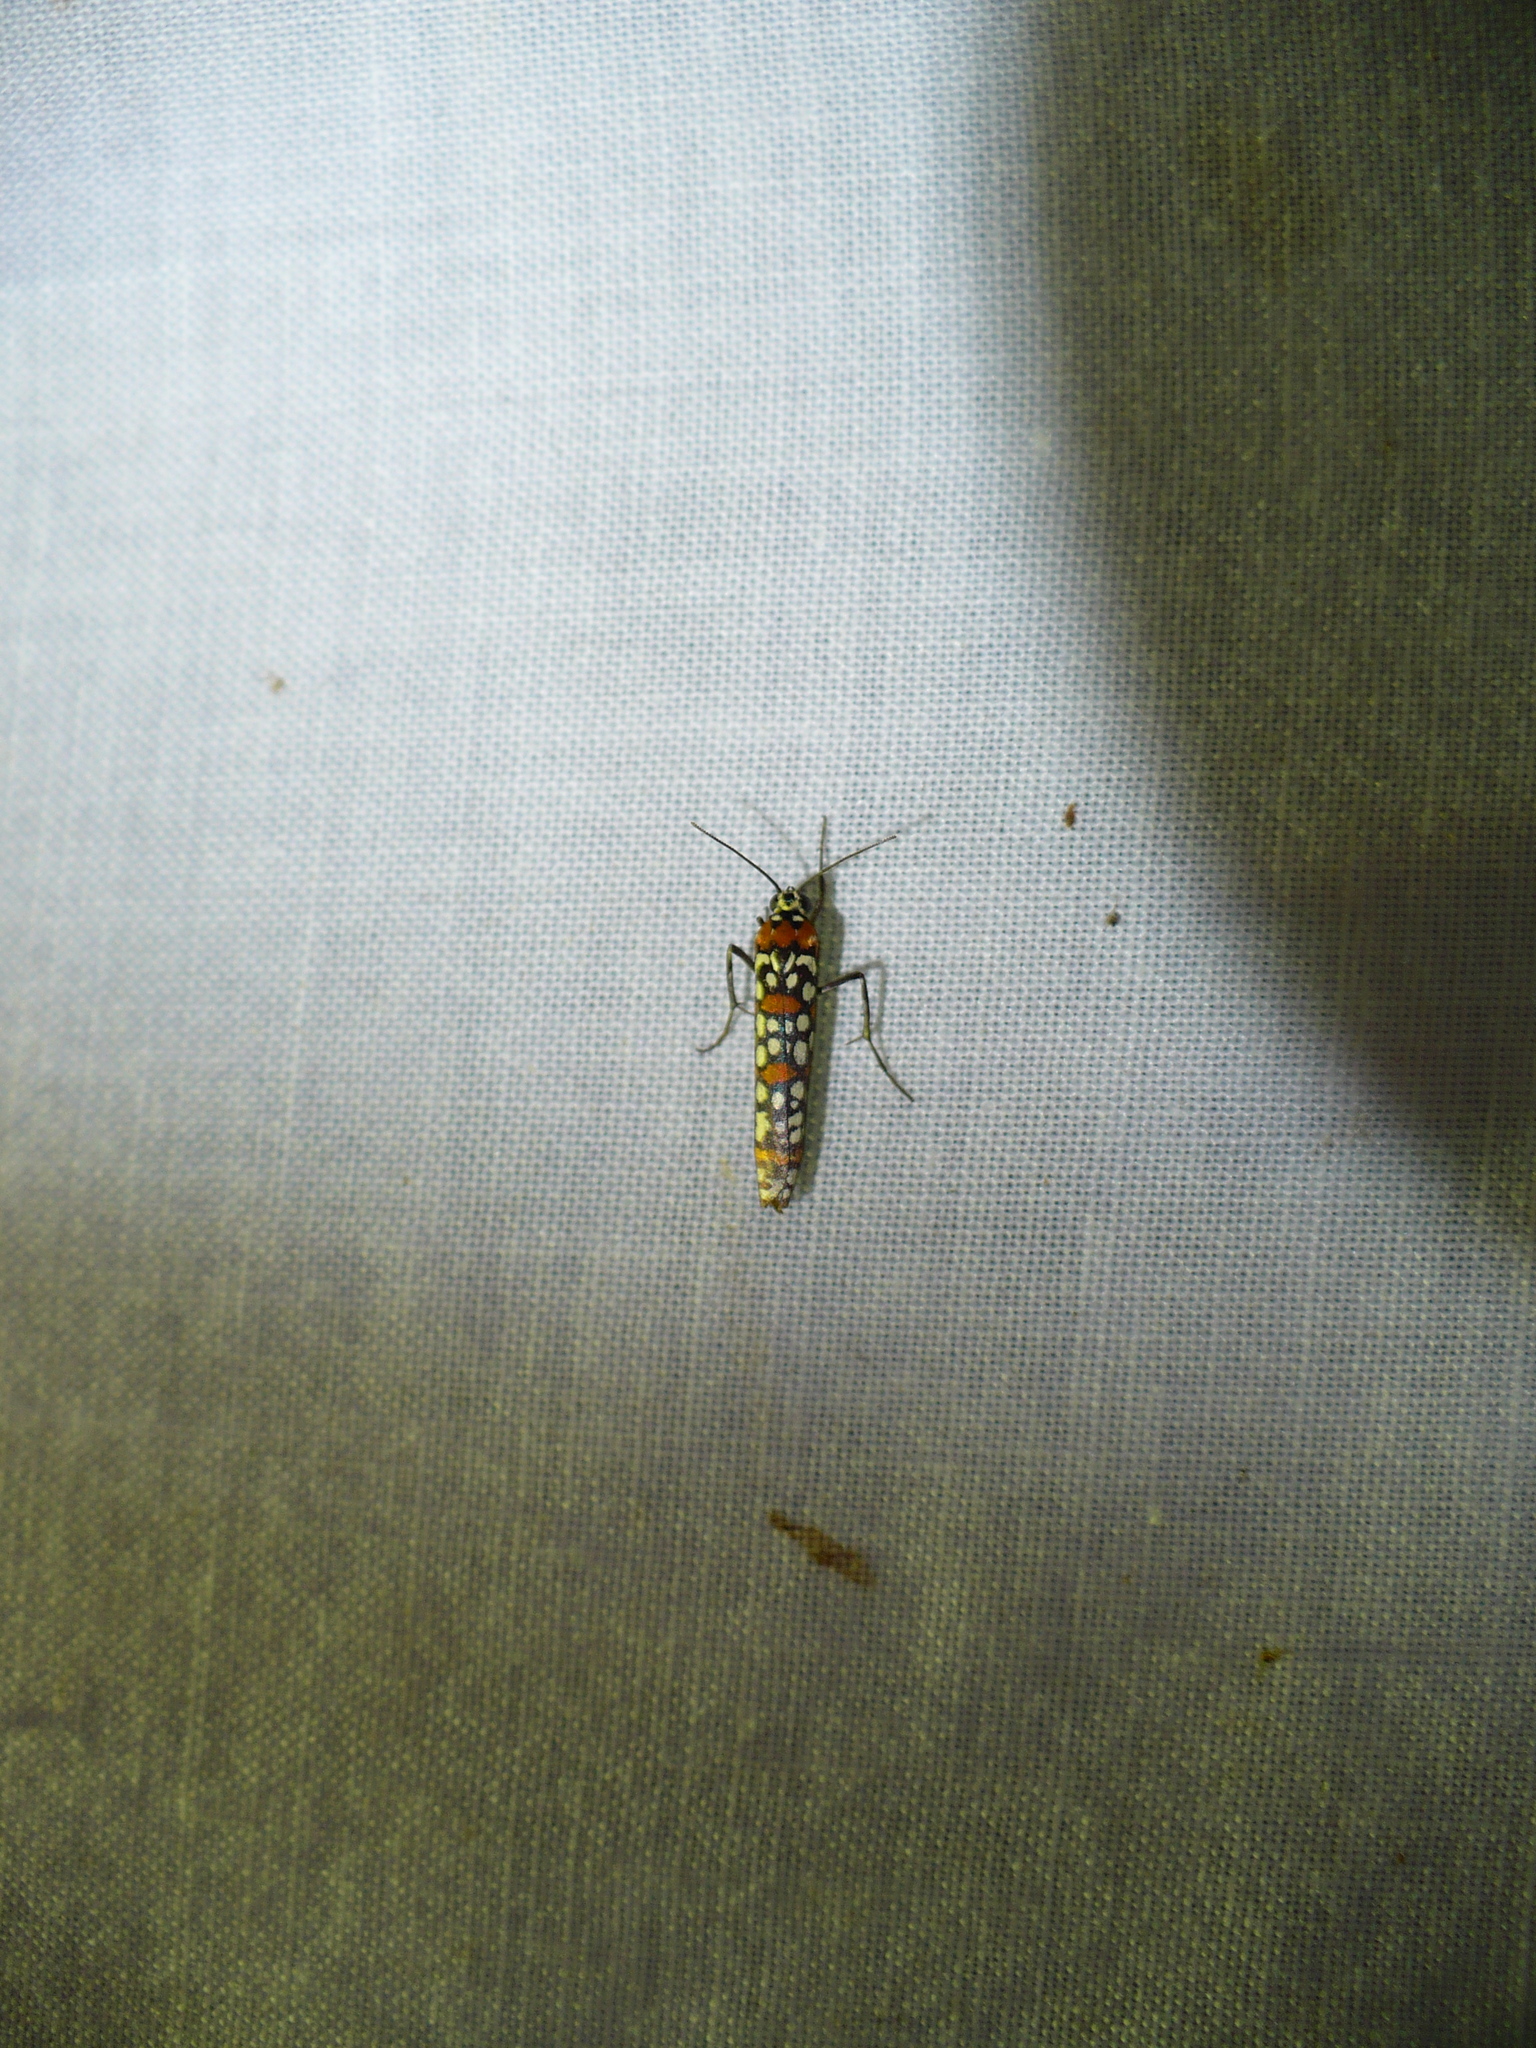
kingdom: Animalia
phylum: Arthropoda
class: Insecta
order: Lepidoptera
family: Attevidae
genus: Atteva
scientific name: Atteva punctella
